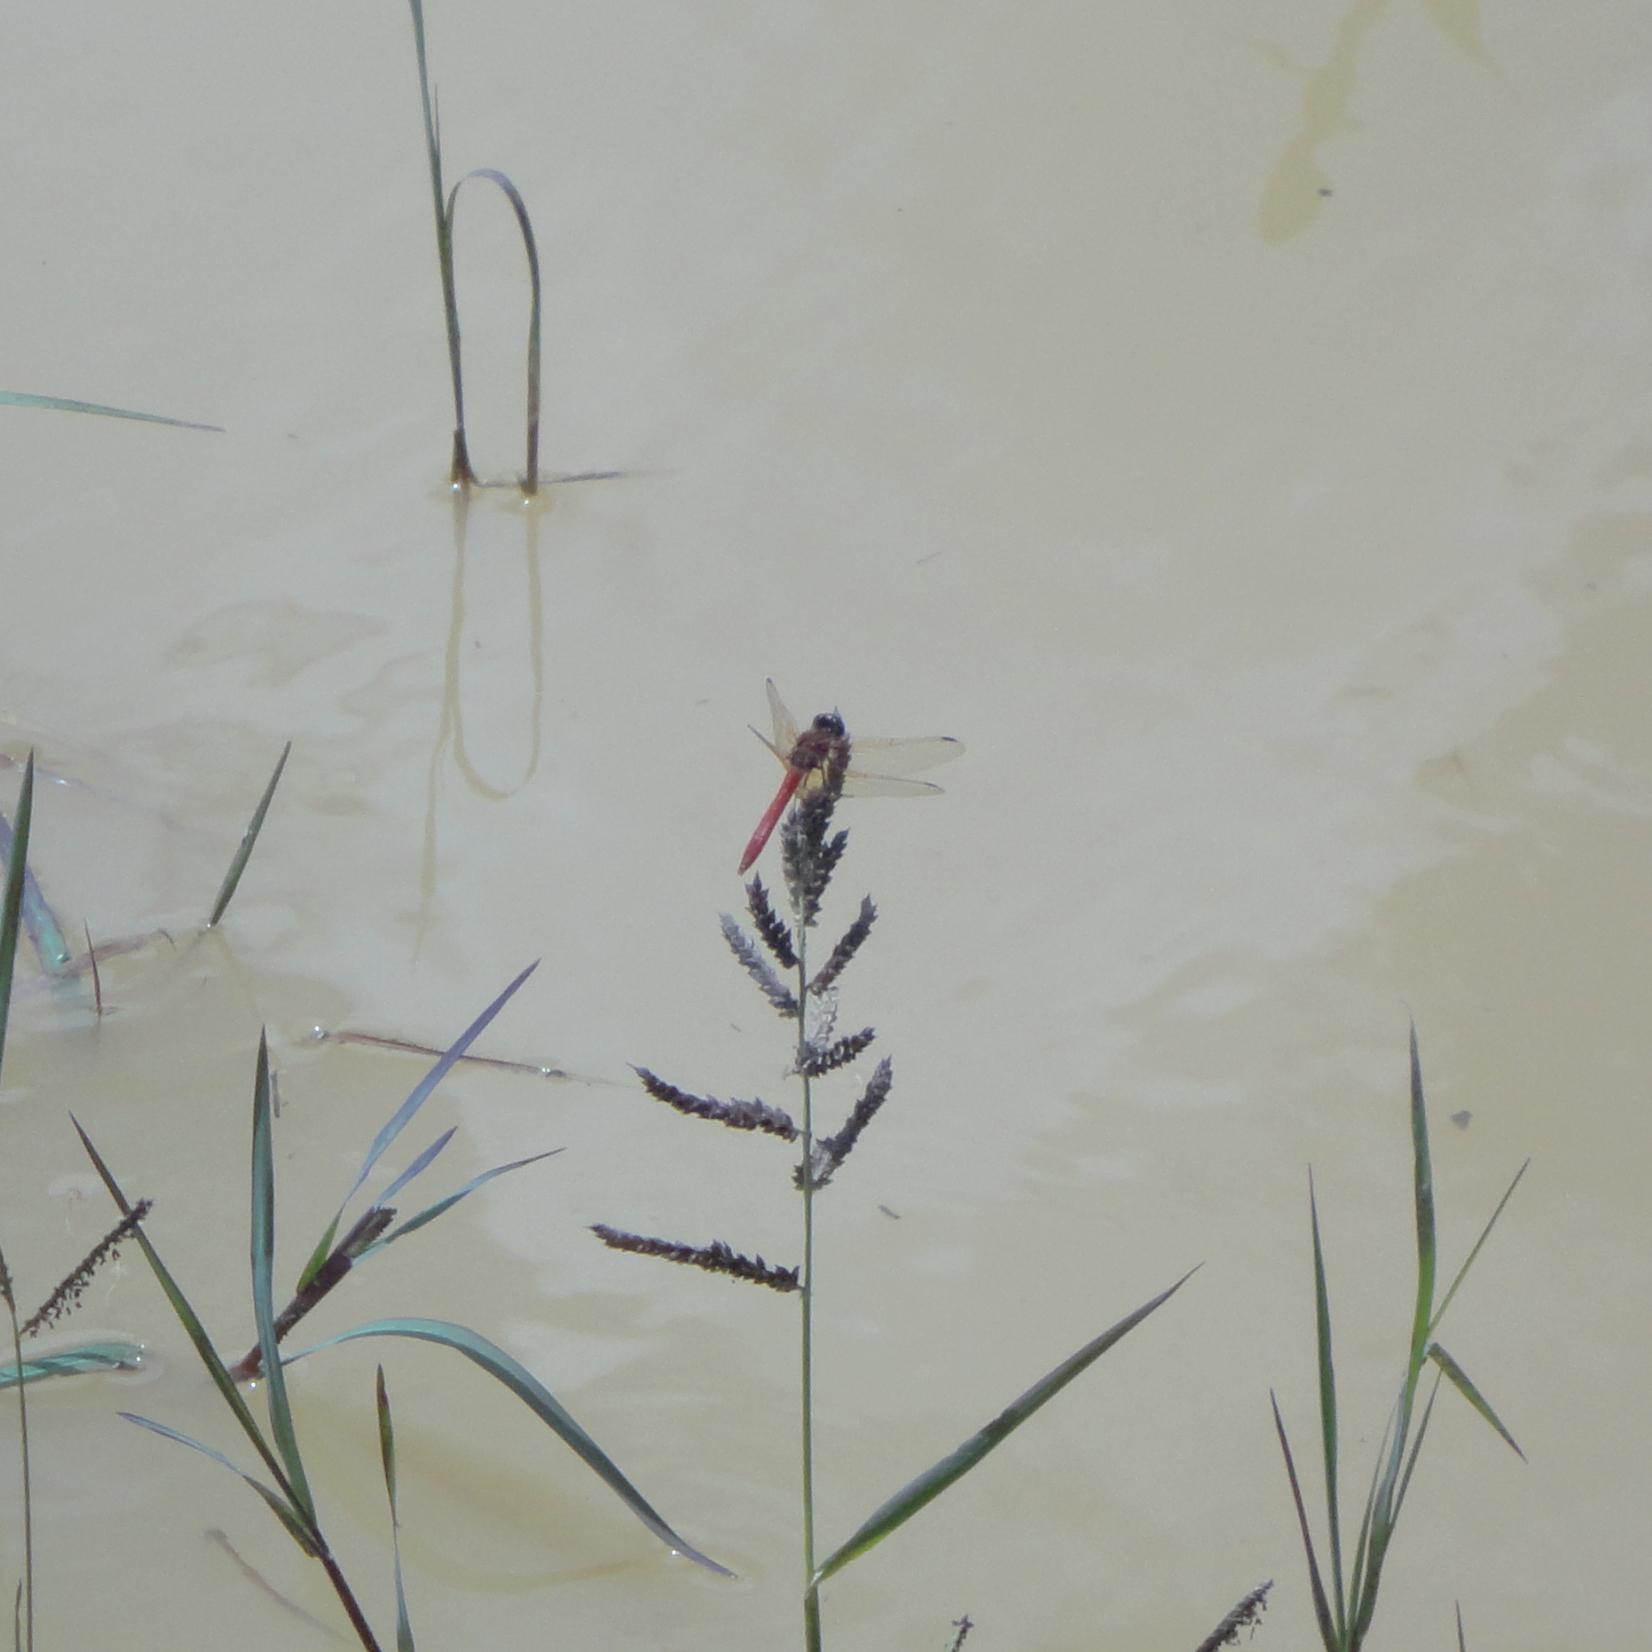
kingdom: Animalia
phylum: Arthropoda
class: Insecta
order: Odonata
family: Libellulidae
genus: Sympetrum
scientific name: Sympetrum illotum
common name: Cardinal meadowhawk
